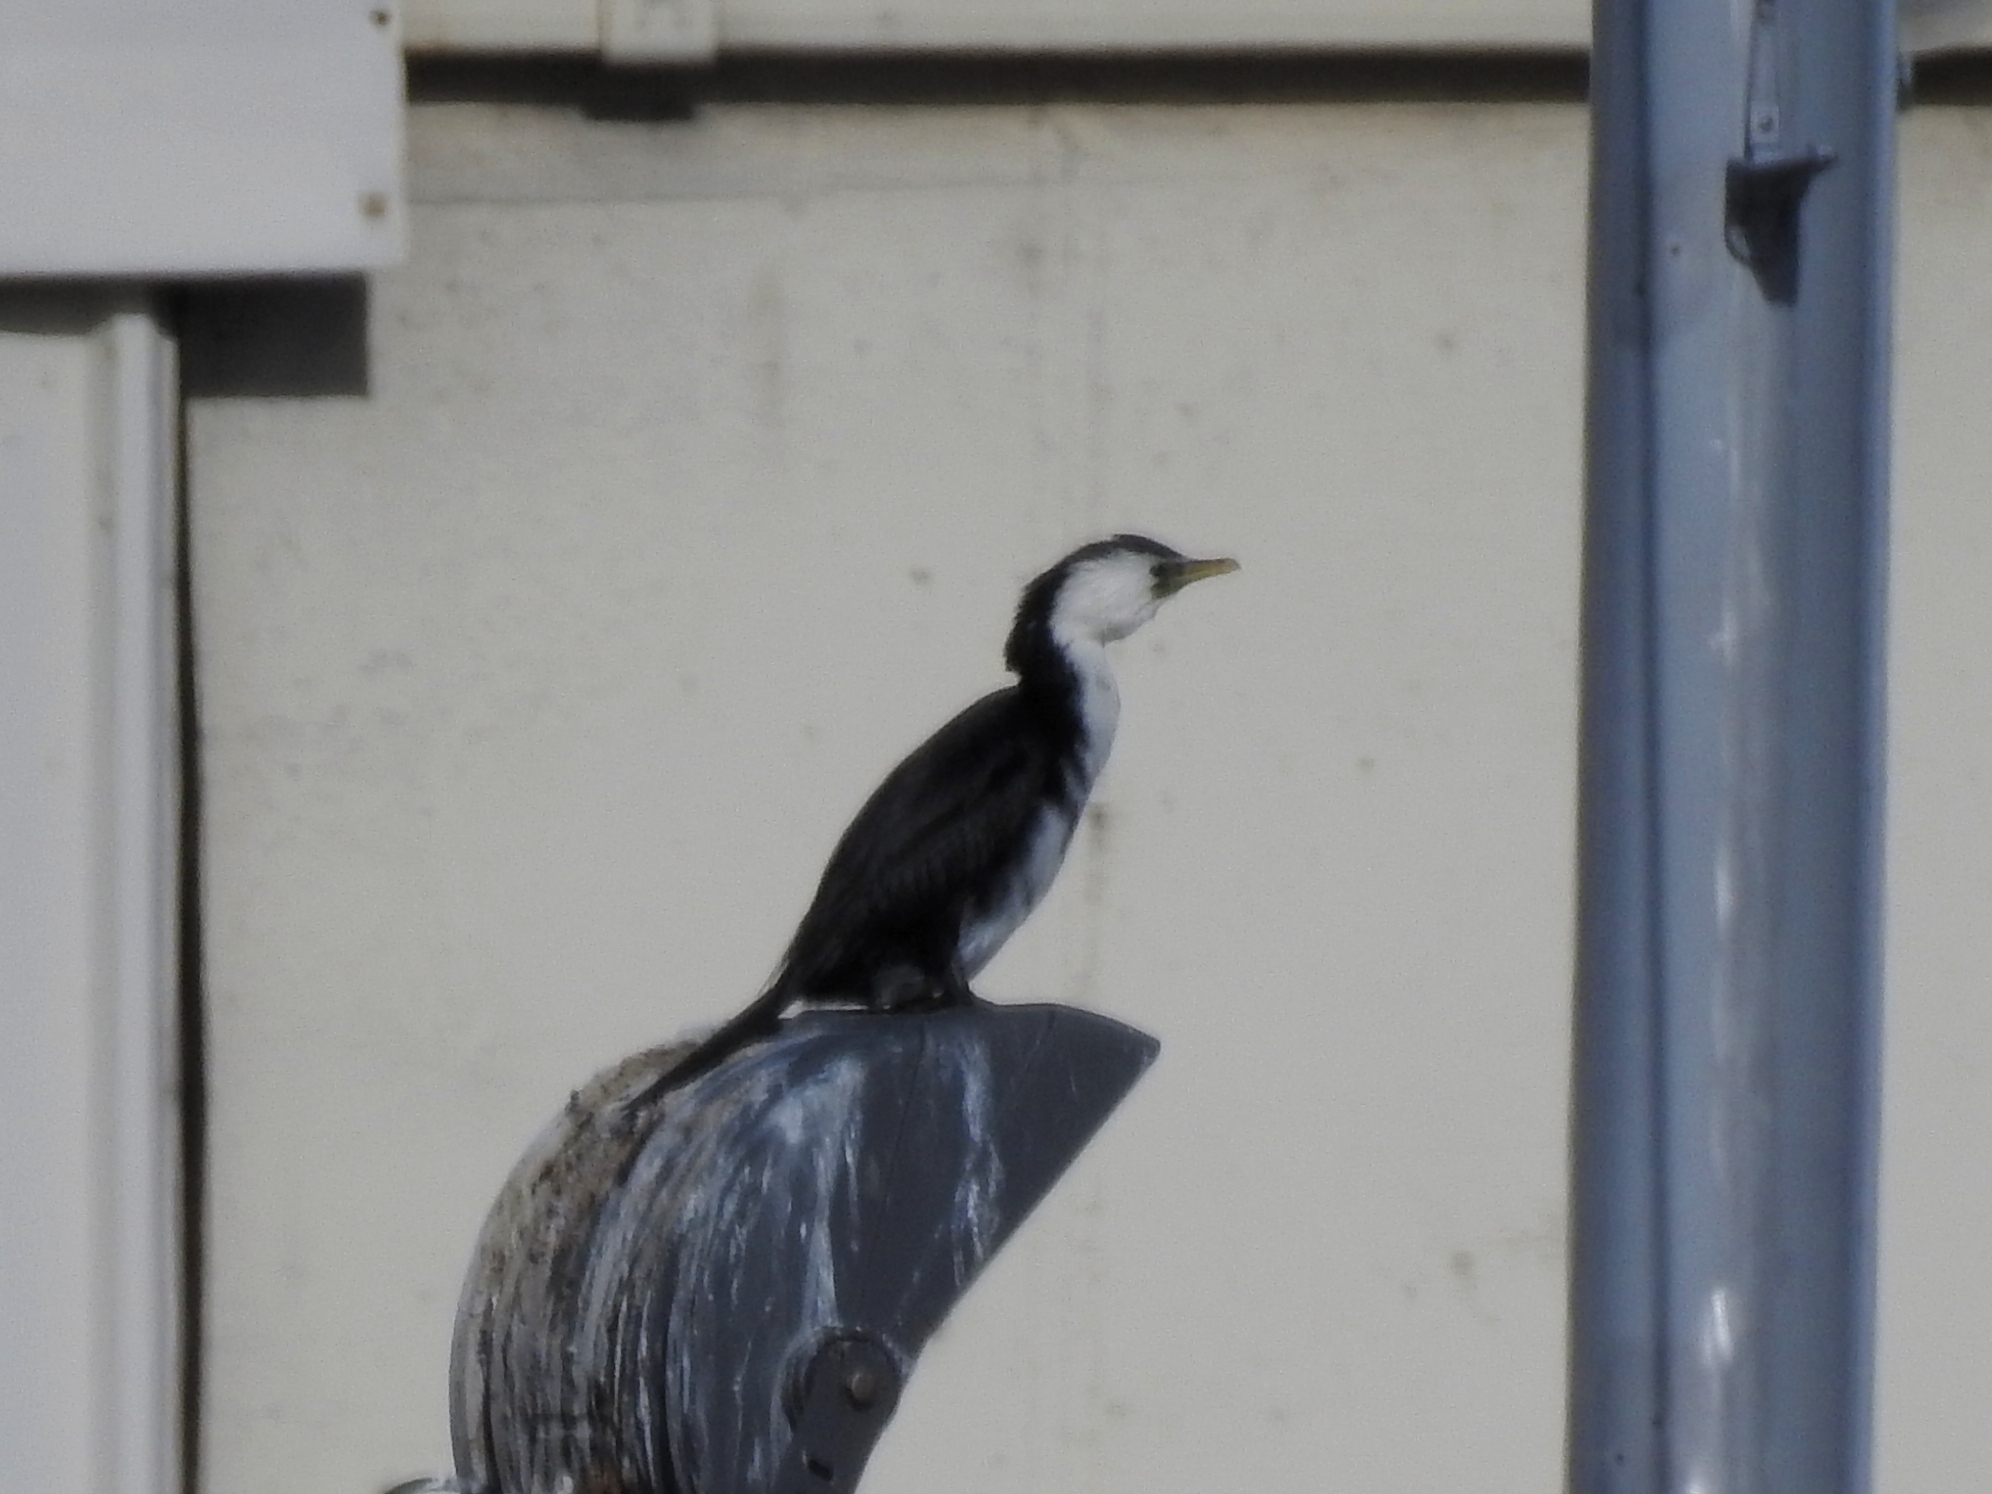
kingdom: Animalia
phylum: Chordata
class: Aves
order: Suliformes
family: Phalacrocoracidae
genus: Microcarbo
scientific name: Microcarbo melanoleucos
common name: Little pied cormorant
